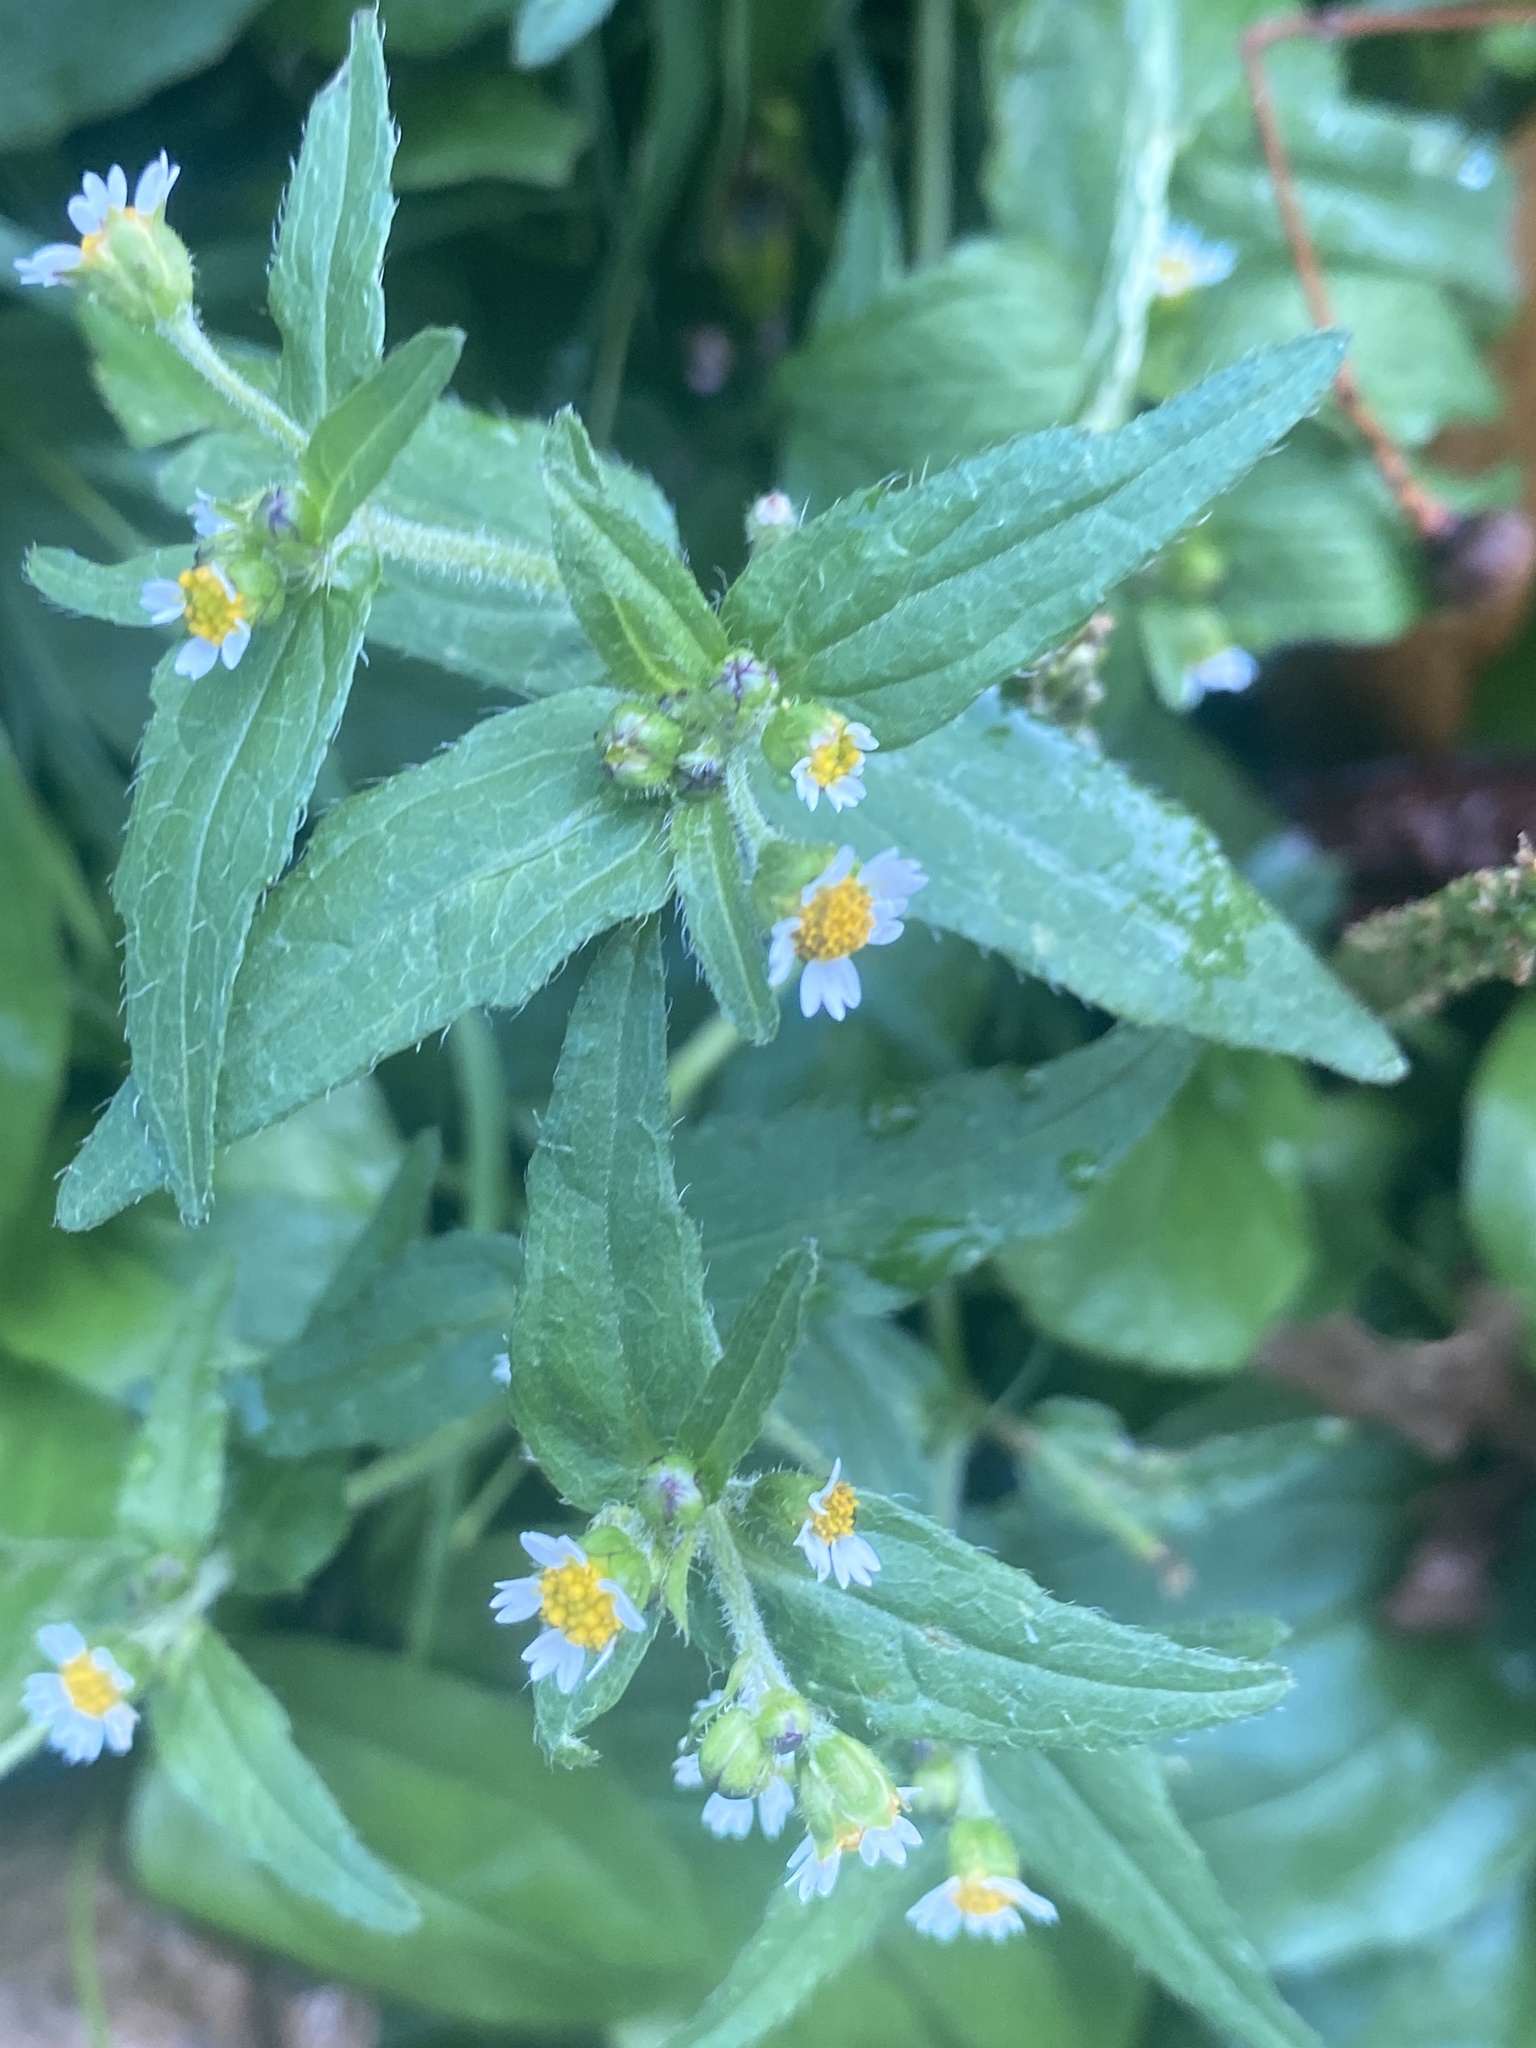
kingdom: Plantae
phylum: Tracheophyta
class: Magnoliopsida
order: Asterales
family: Asteraceae
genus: Galinsoga
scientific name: Galinsoga quadriradiata
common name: Shaggy soldier
